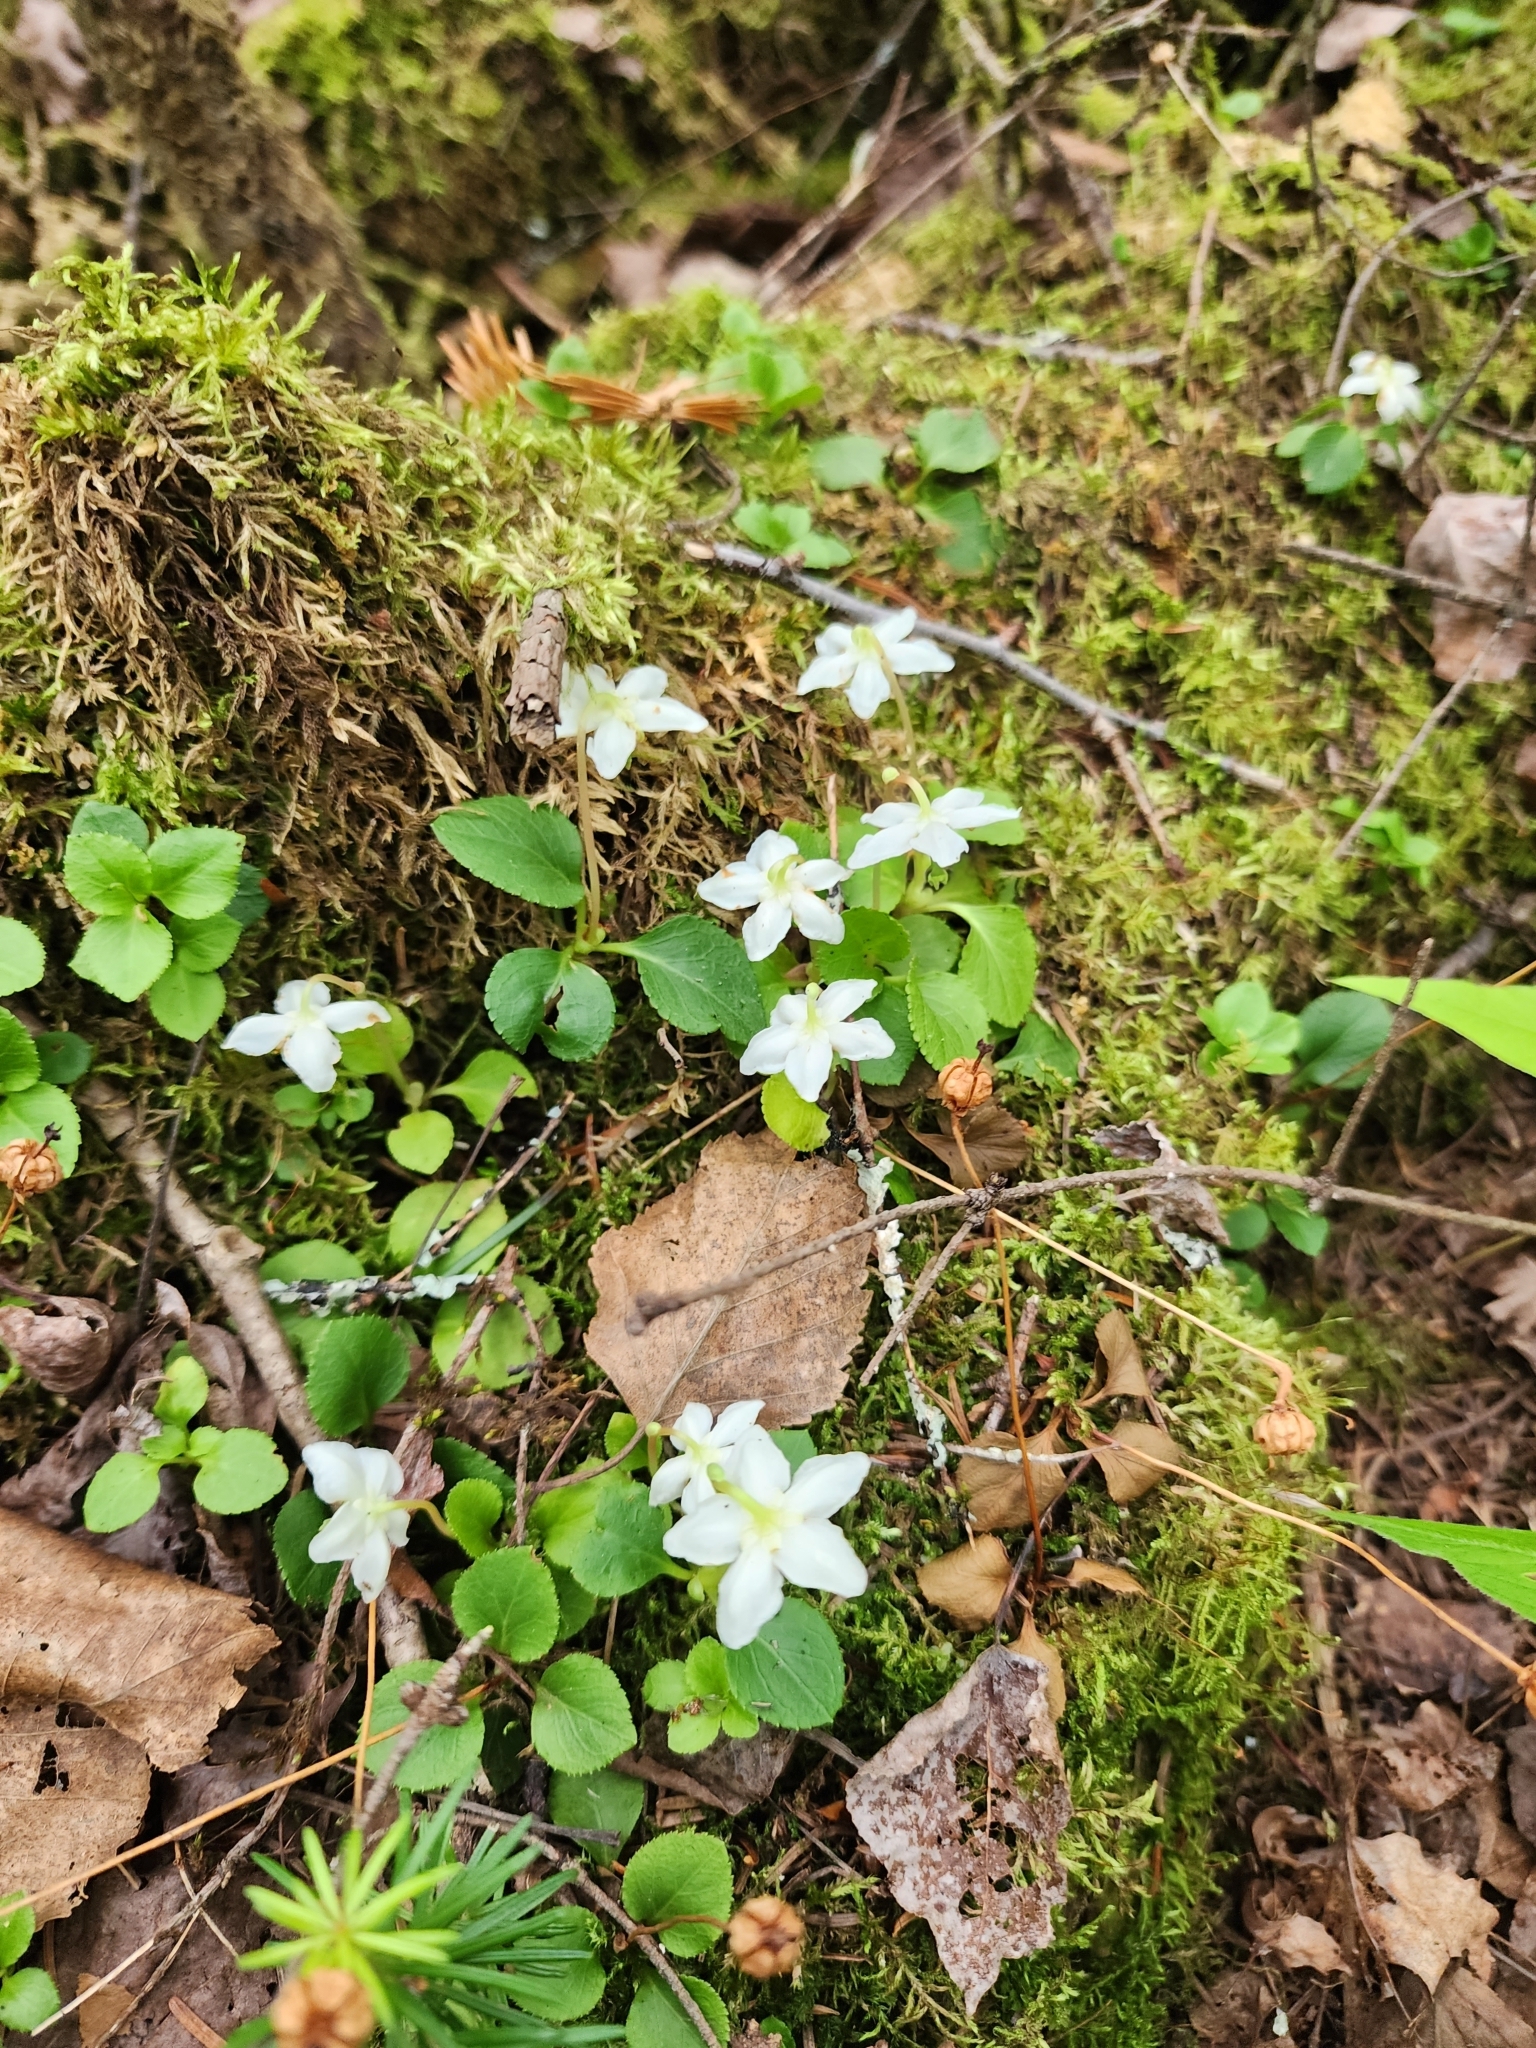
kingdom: Plantae
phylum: Tracheophyta
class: Magnoliopsida
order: Ericales
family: Ericaceae
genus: Moneses
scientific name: Moneses uniflora
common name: One-flowered wintergreen
